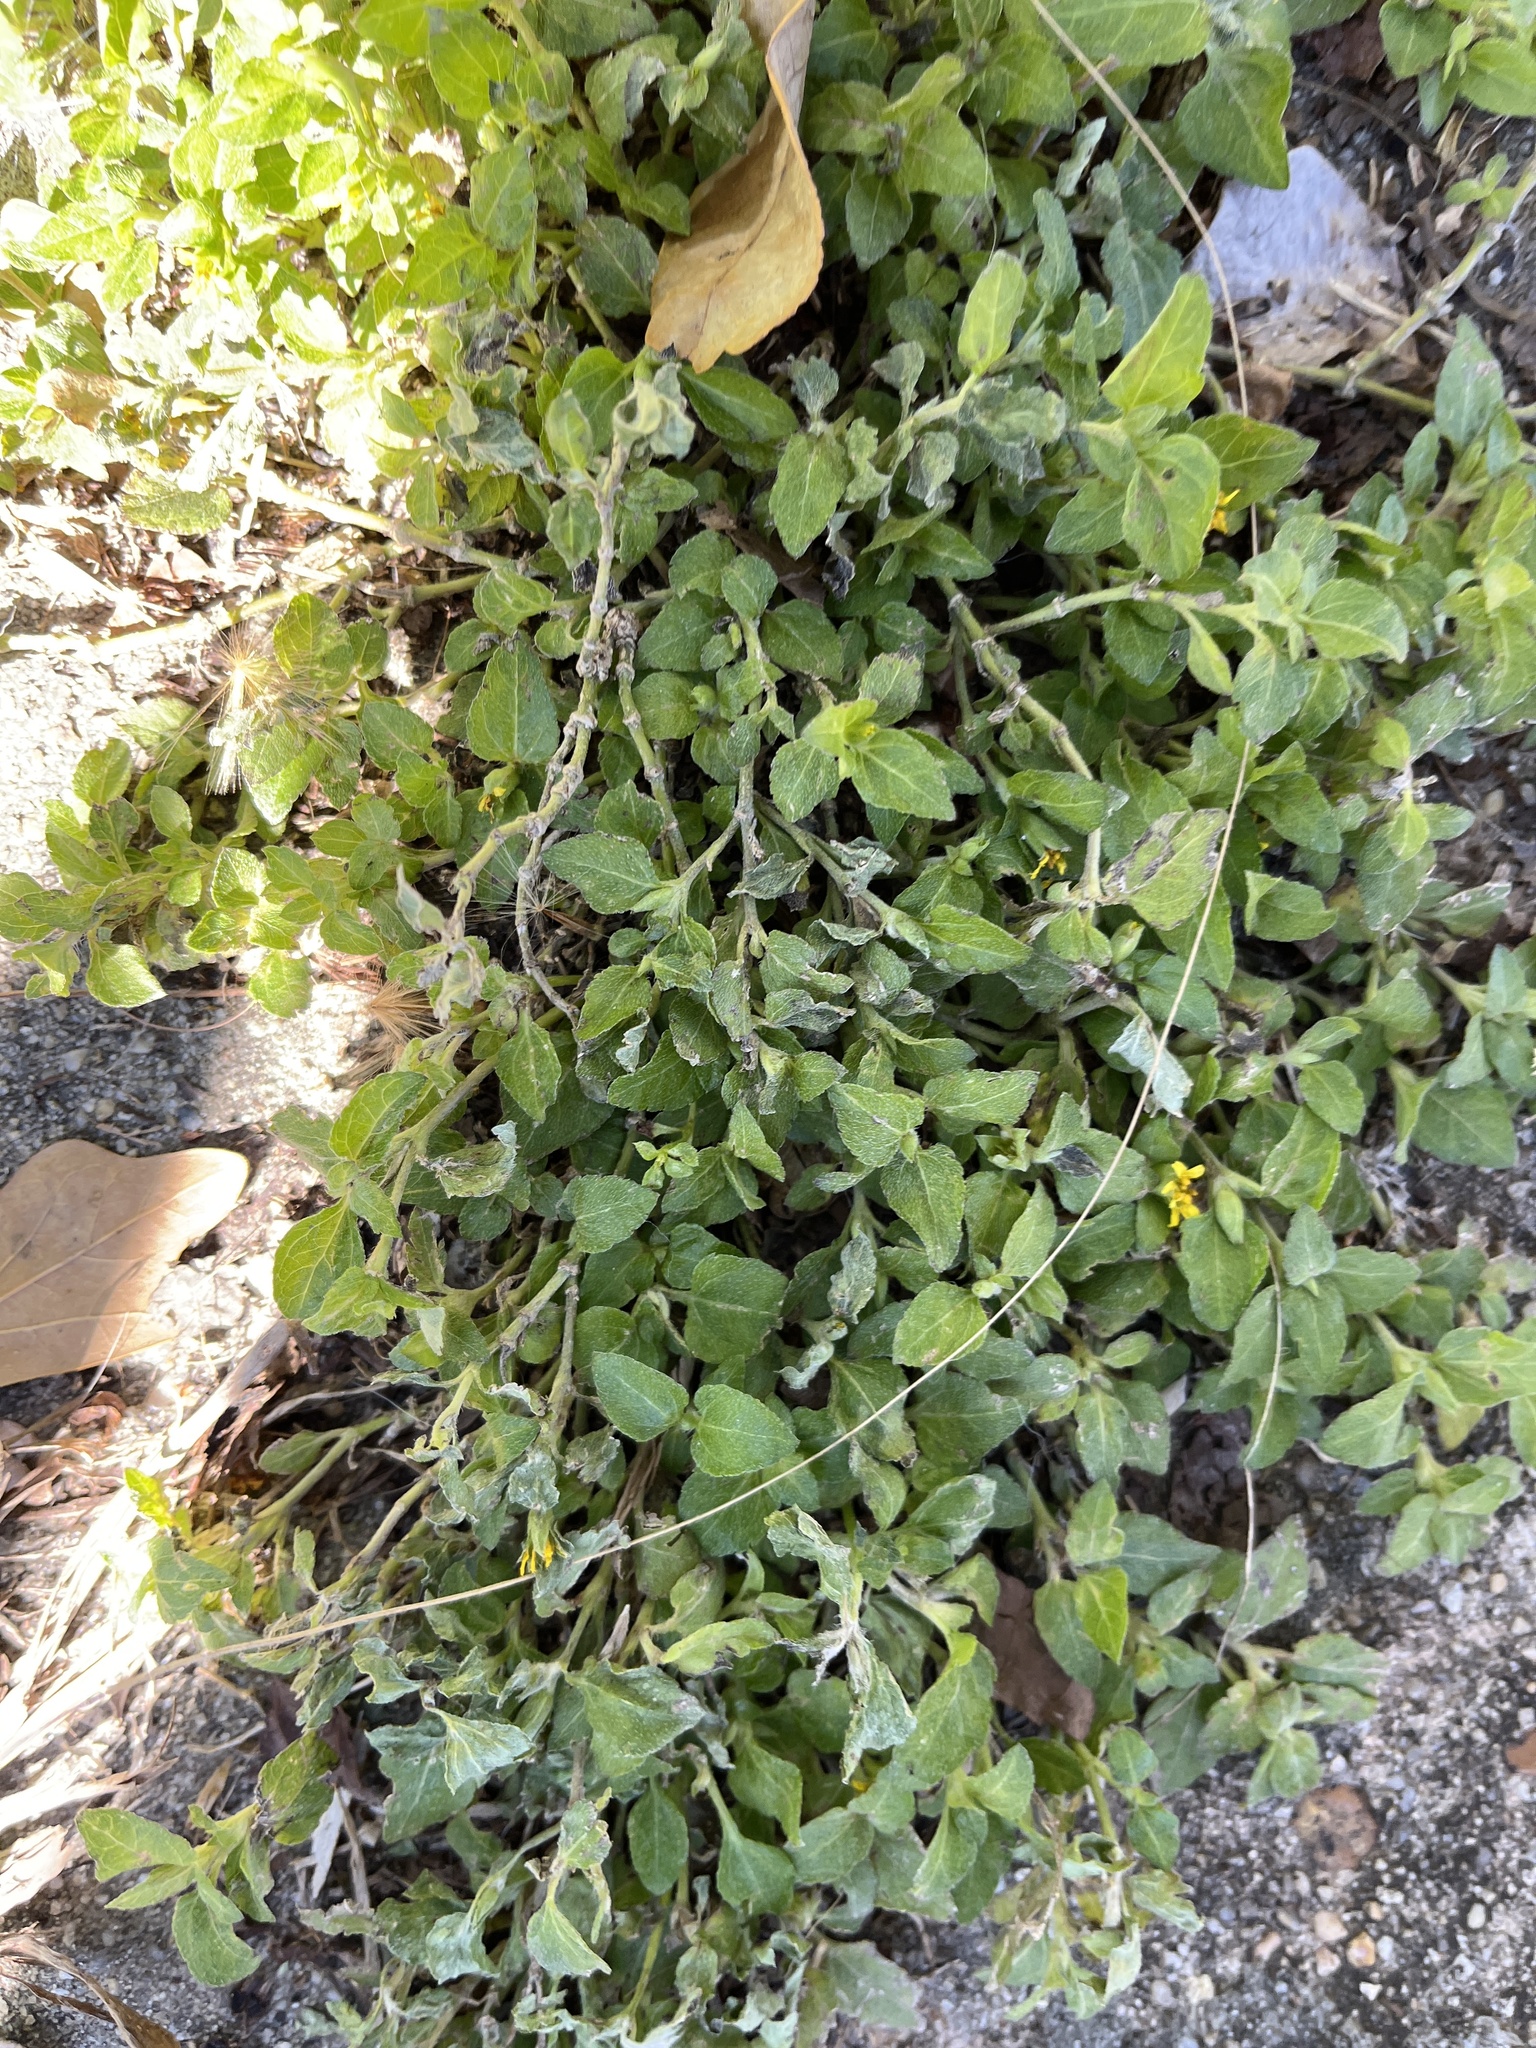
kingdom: Plantae
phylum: Tracheophyta
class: Magnoliopsida
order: Asterales
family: Asteraceae
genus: Calyptocarpus
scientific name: Calyptocarpus vialis
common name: Straggler daisy
